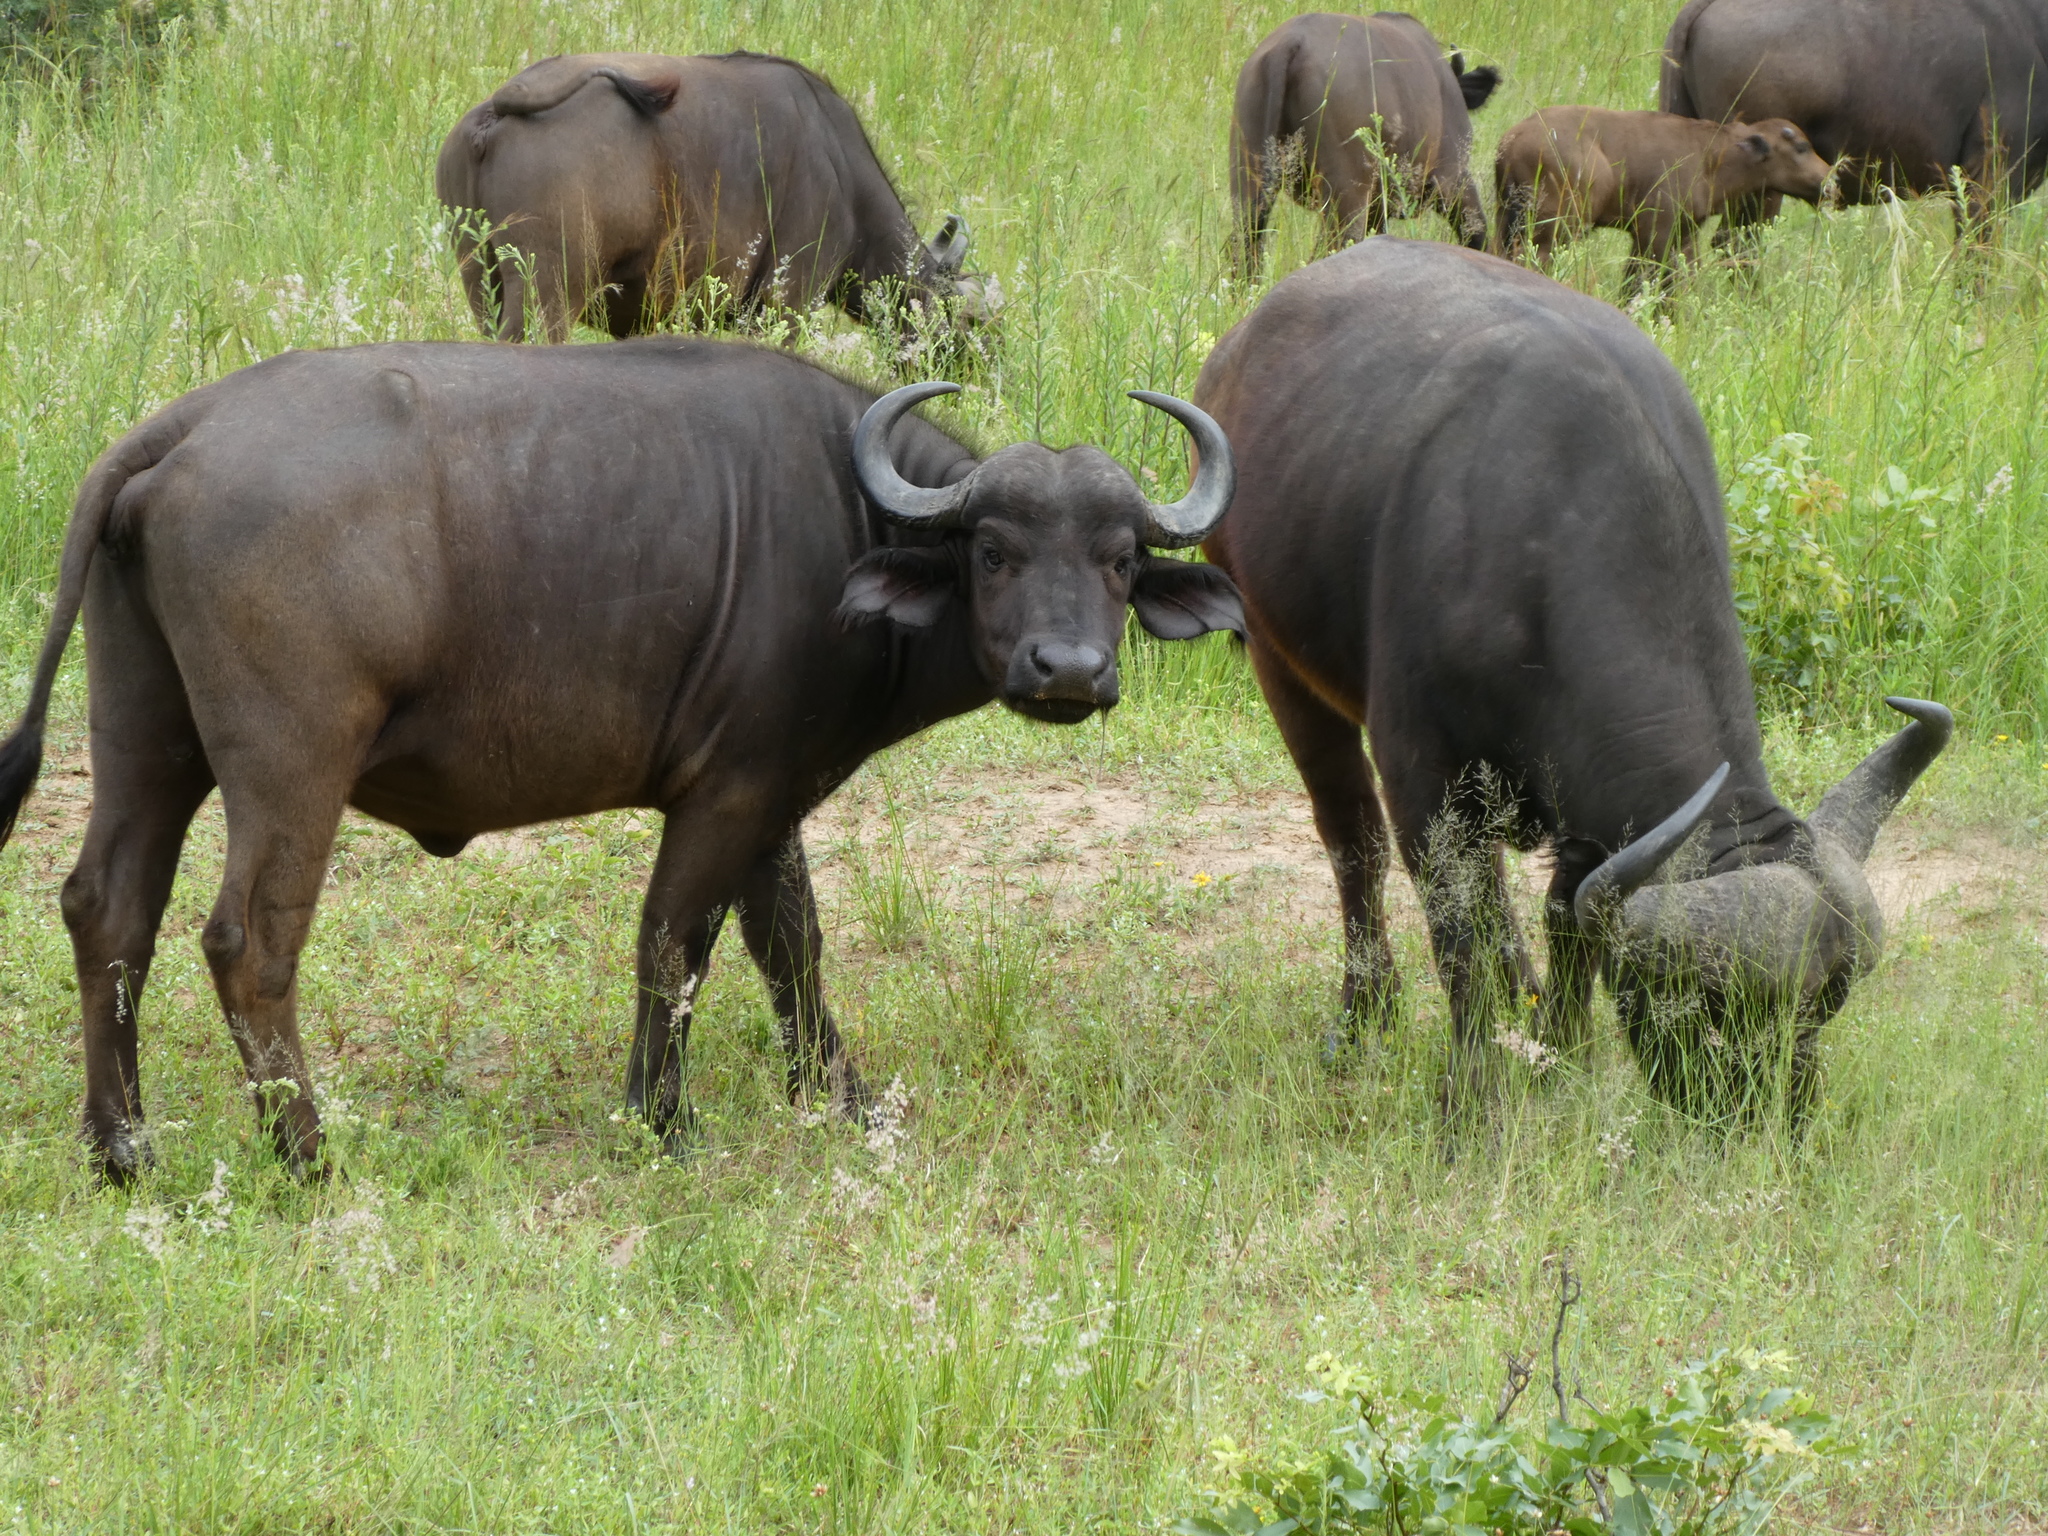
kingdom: Animalia
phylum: Chordata
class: Mammalia
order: Artiodactyla
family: Bovidae
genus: Syncerus
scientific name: Syncerus caffer
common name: African buffalo
